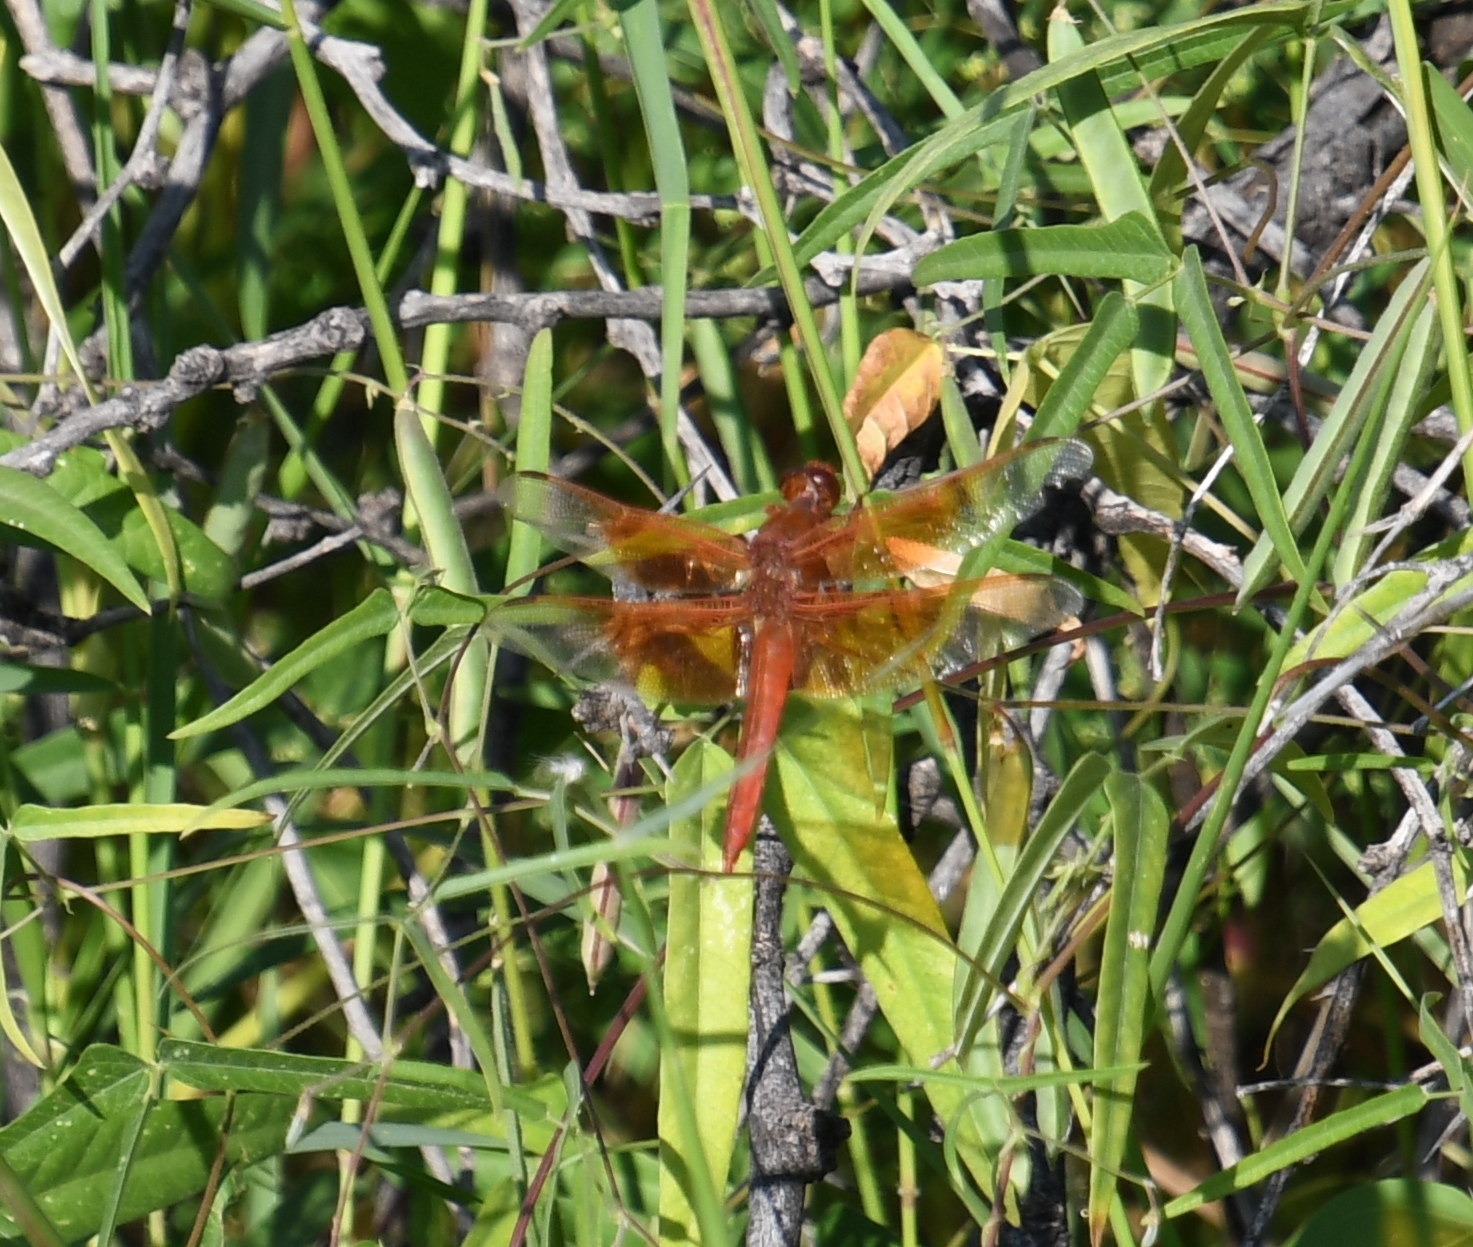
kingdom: Animalia
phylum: Arthropoda
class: Insecta
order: Odonata
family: Libellulidae
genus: Libellula
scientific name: Libellula saturata
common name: Flame skimmer
